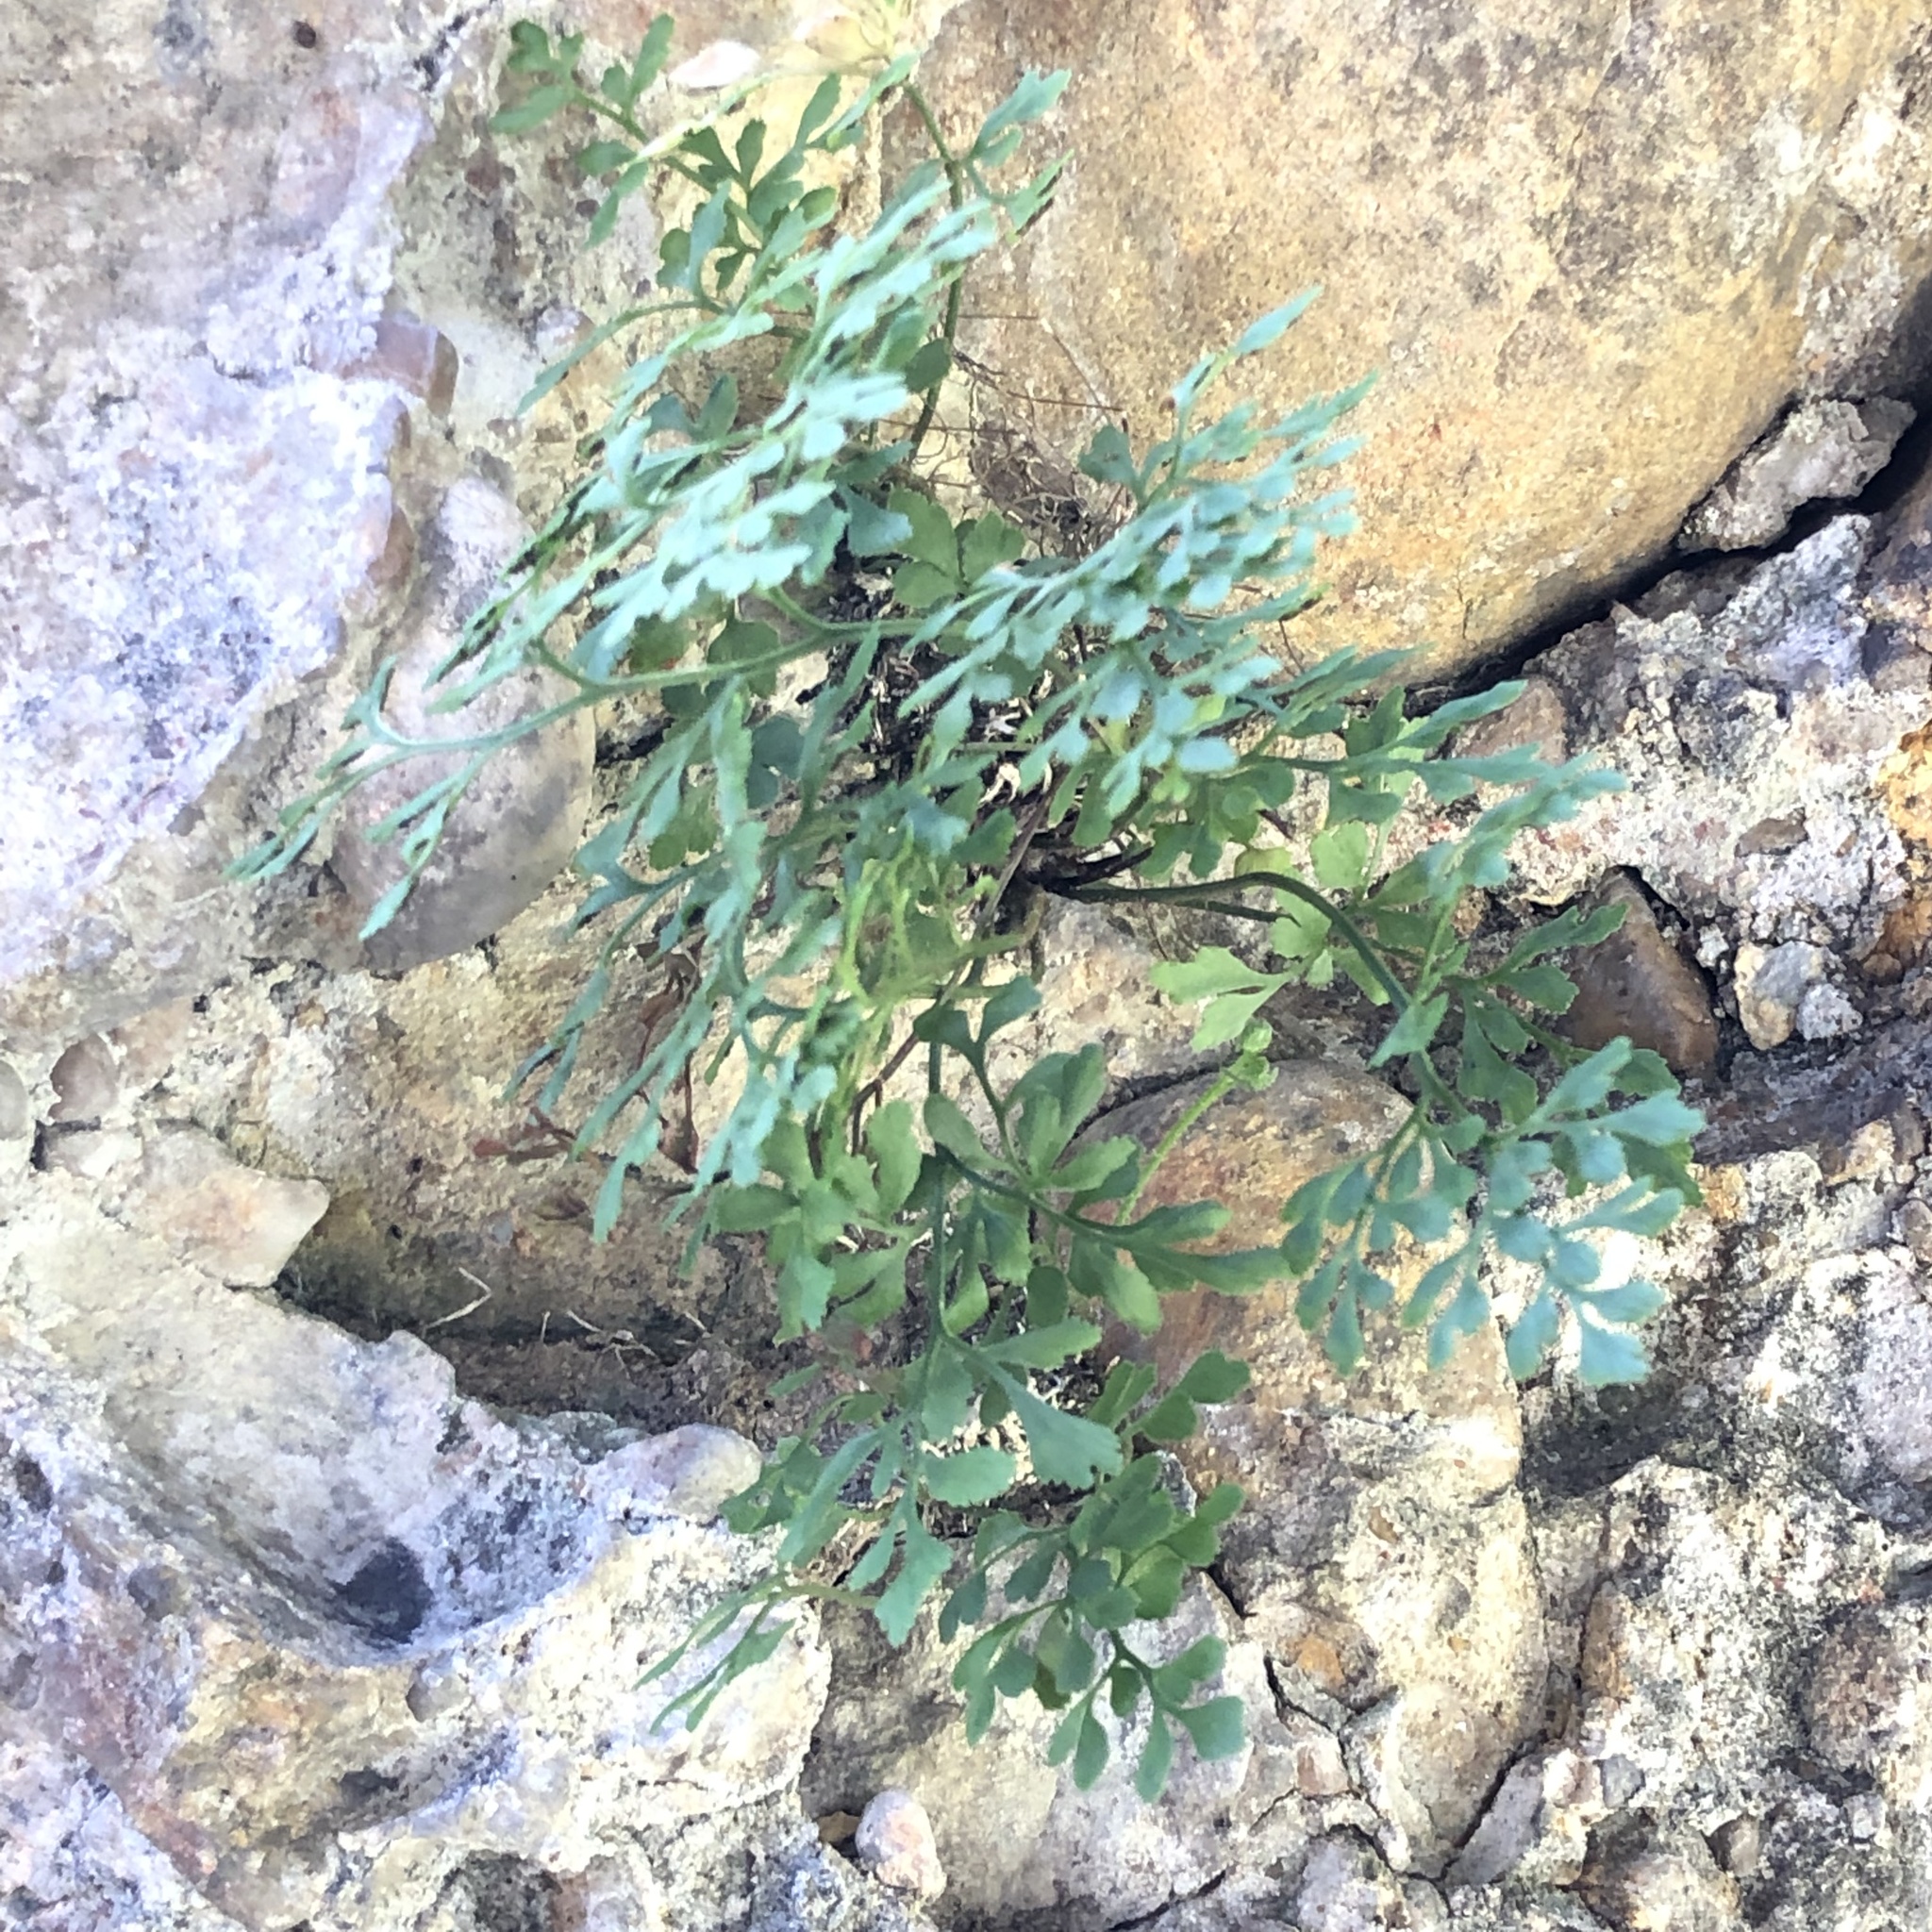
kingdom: Plantae
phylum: Tracheophyta
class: Polypodiopsida
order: Polypodiales
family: Aspleniaceae
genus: Asplenium
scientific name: Asplenium ruta-muraria
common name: Wall-rue
